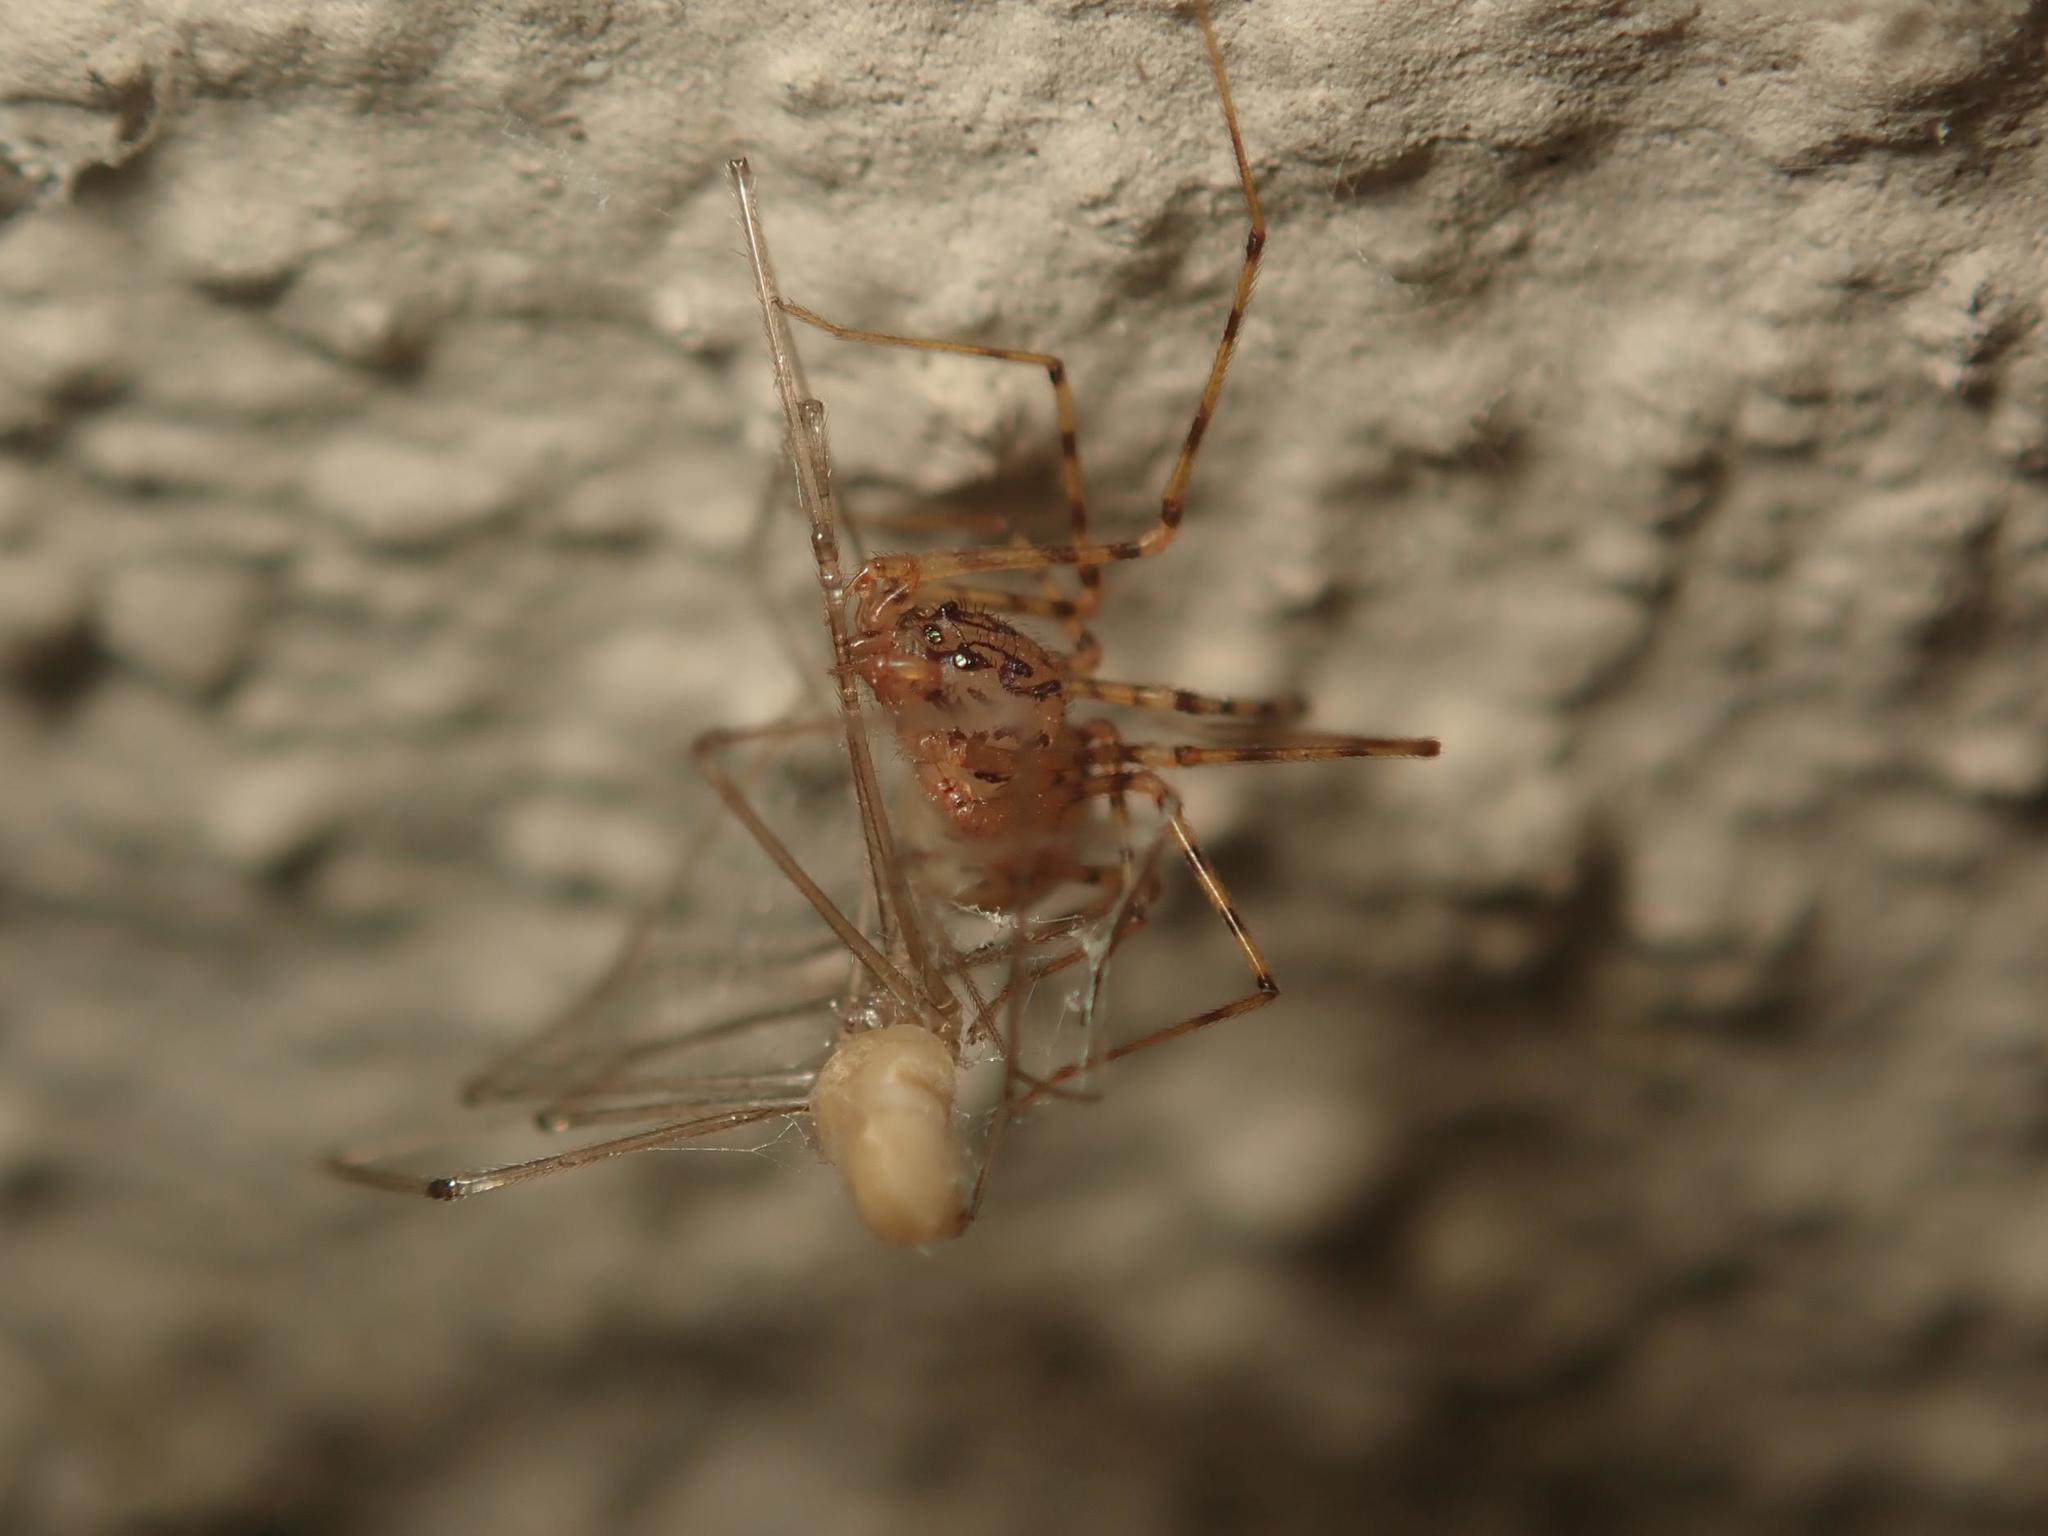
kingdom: Animalia
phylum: Arthropoda
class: Arachnida
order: Araneae
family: Scytodidae
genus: Scytodes
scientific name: Scytodes thoracica
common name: Spitting spider
